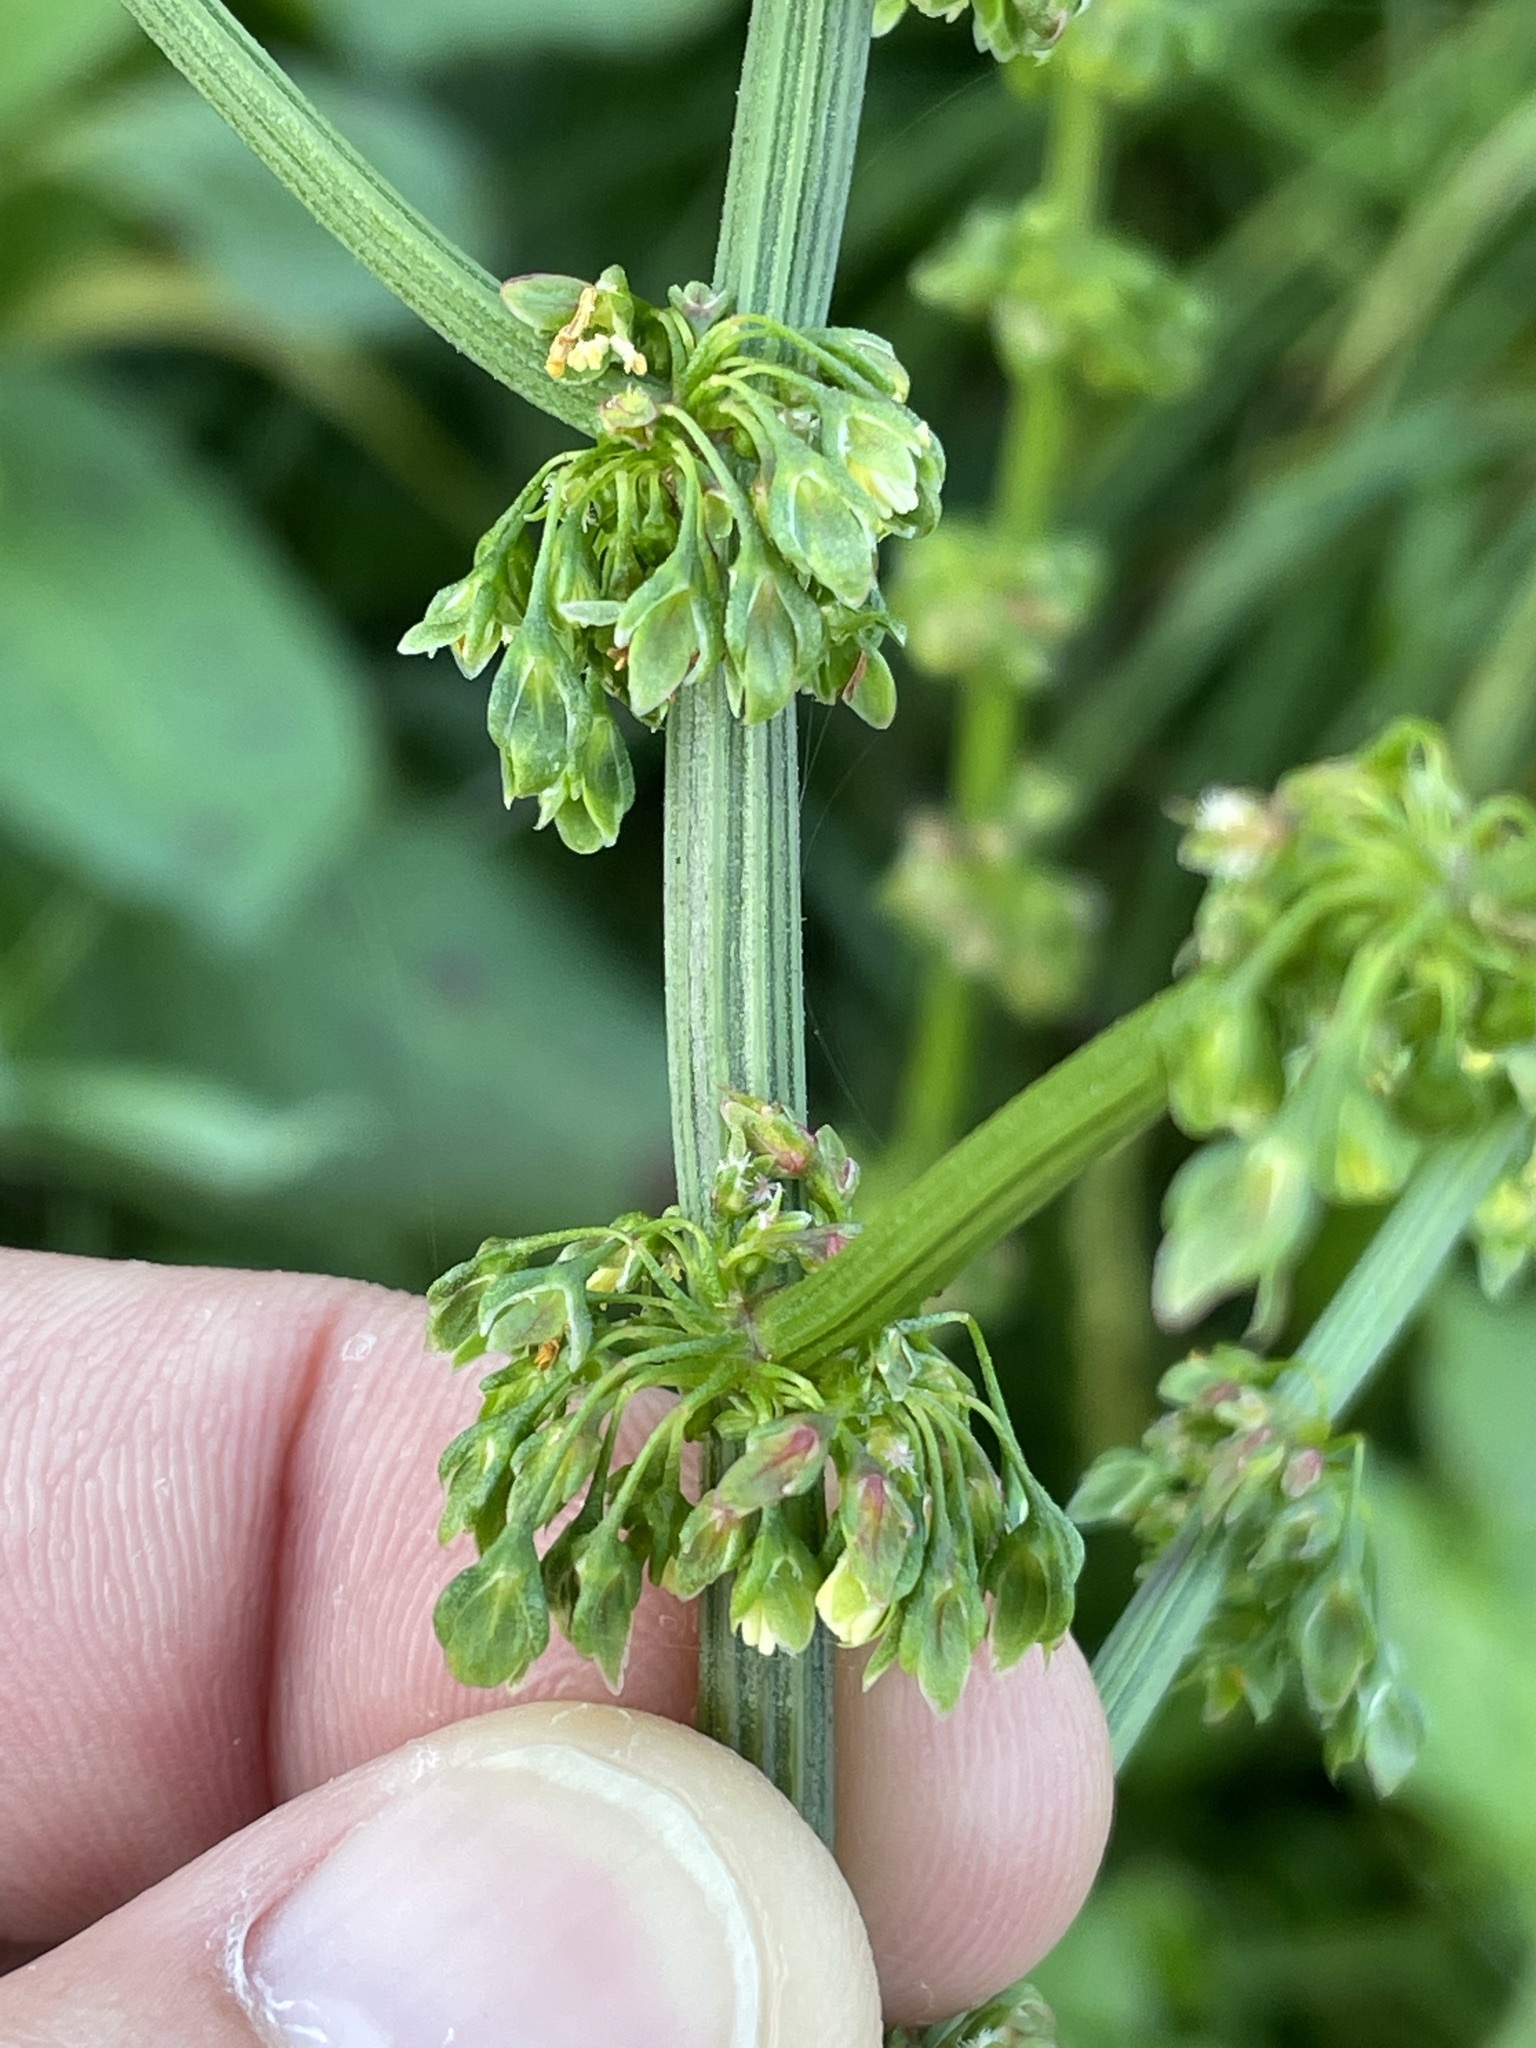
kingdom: Plantae
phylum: Tracheophyta
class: Magnoliopsida
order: Caryophyllales
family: Polygonaceae
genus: Rumex
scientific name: Rumex obtusifolius
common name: Bitter dock
